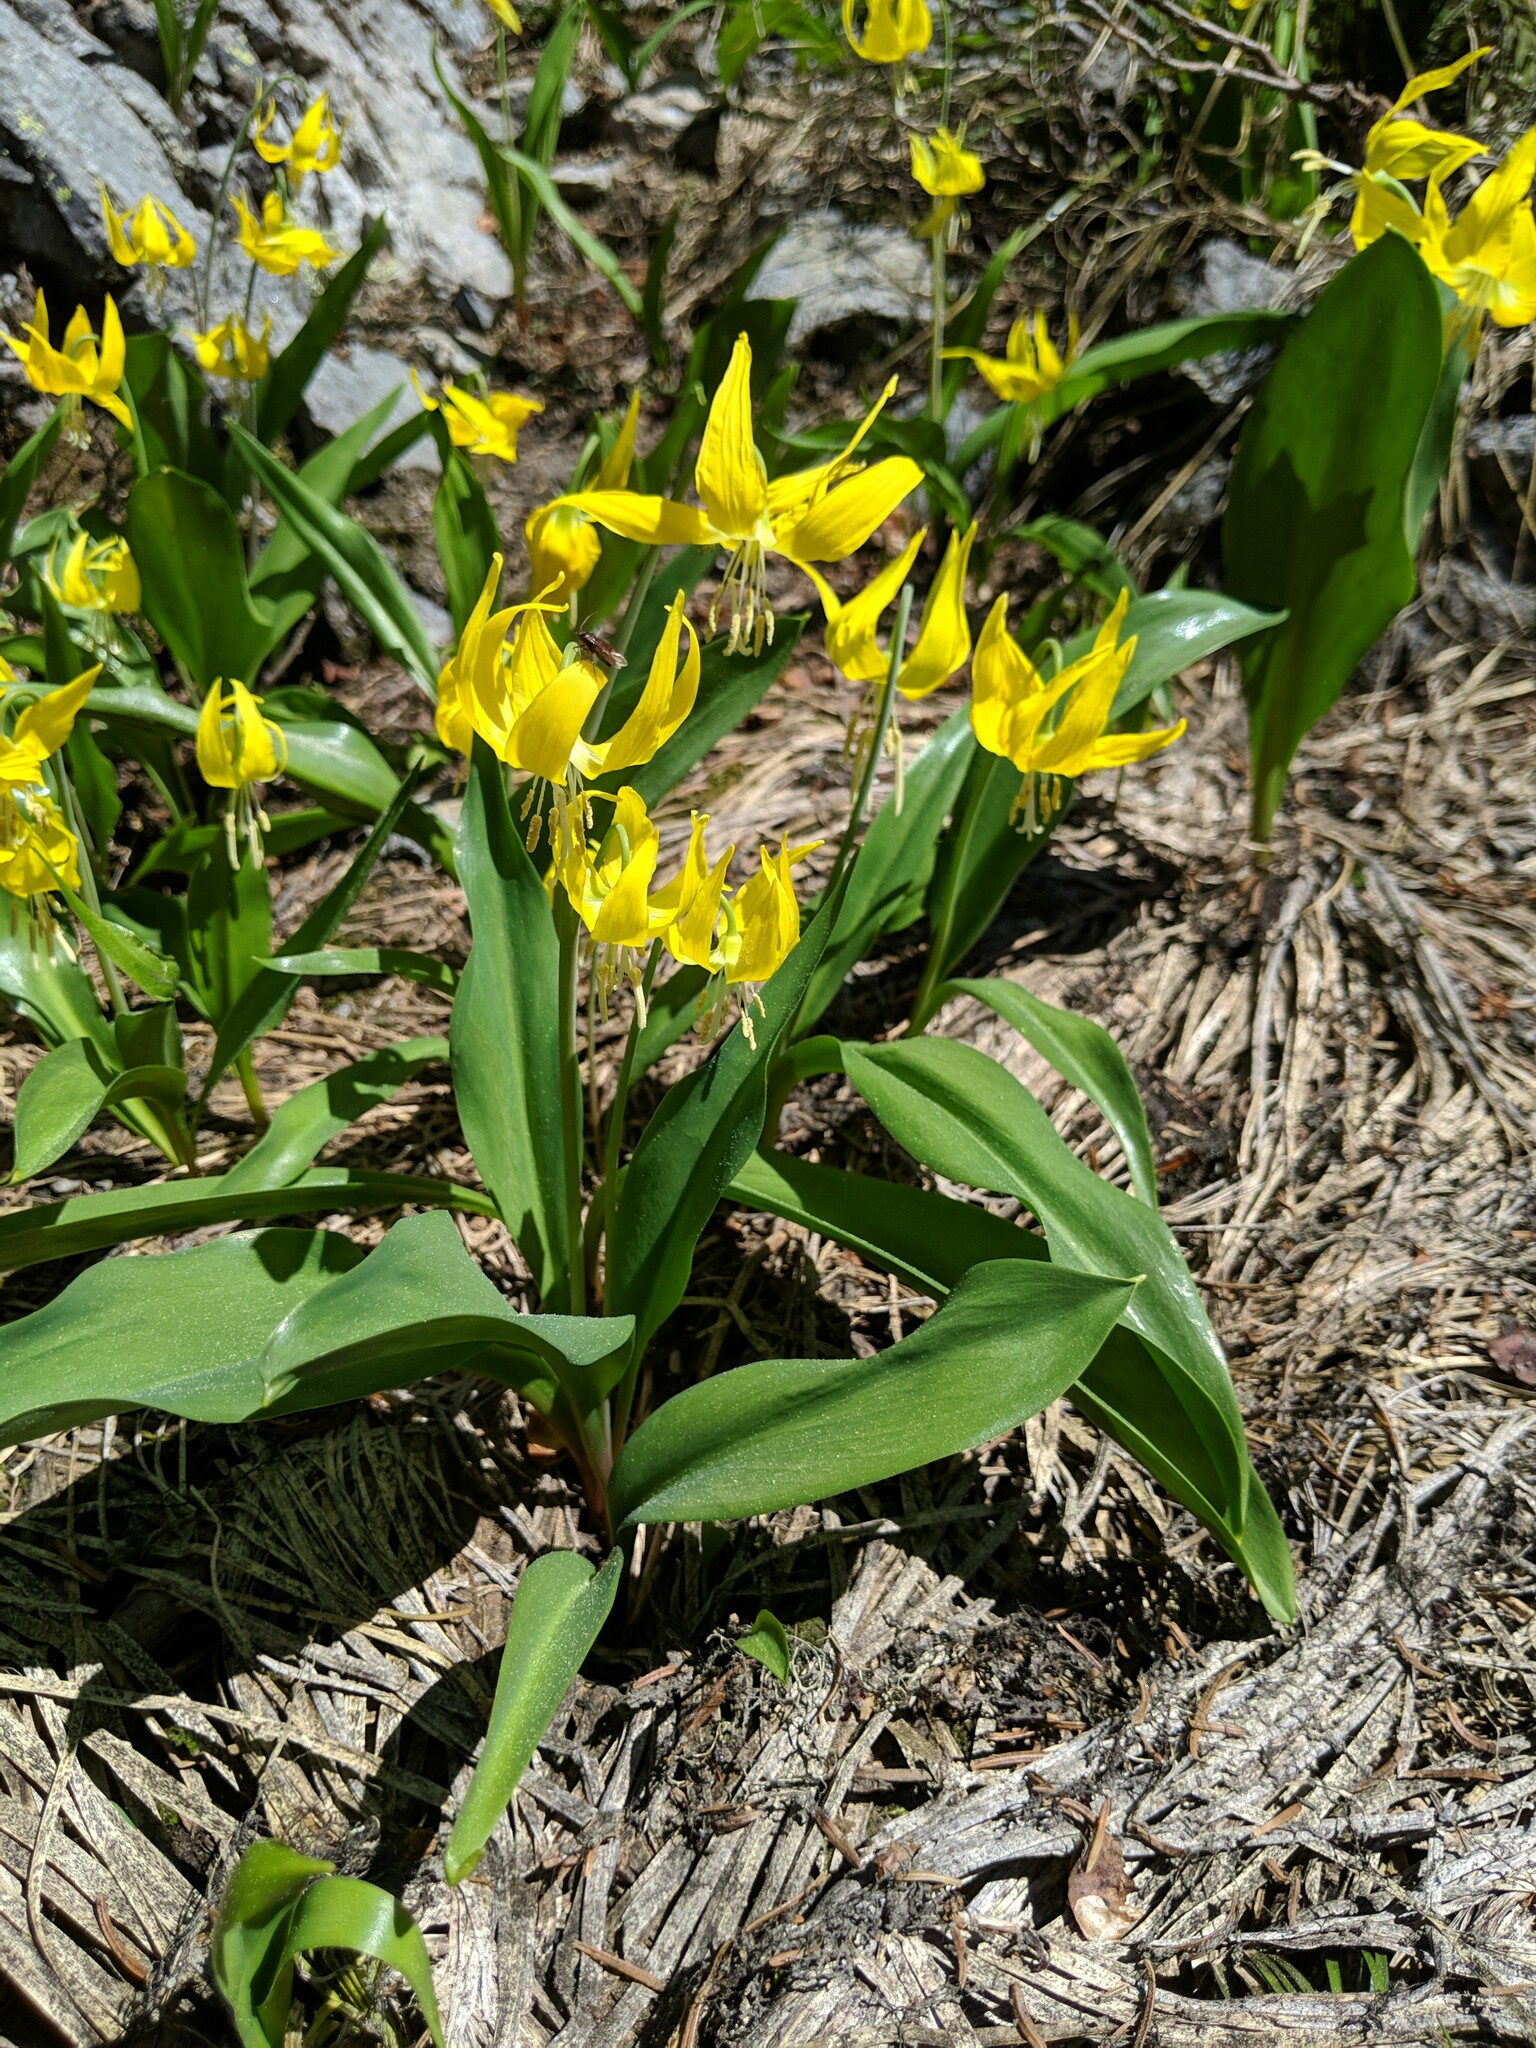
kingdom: Plantae
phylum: Tracheophyta
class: Liliopsida
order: Liliales
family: Liliaceae
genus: Erythronium
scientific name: Erythronium grandiflorum
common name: Avalanche-lily
